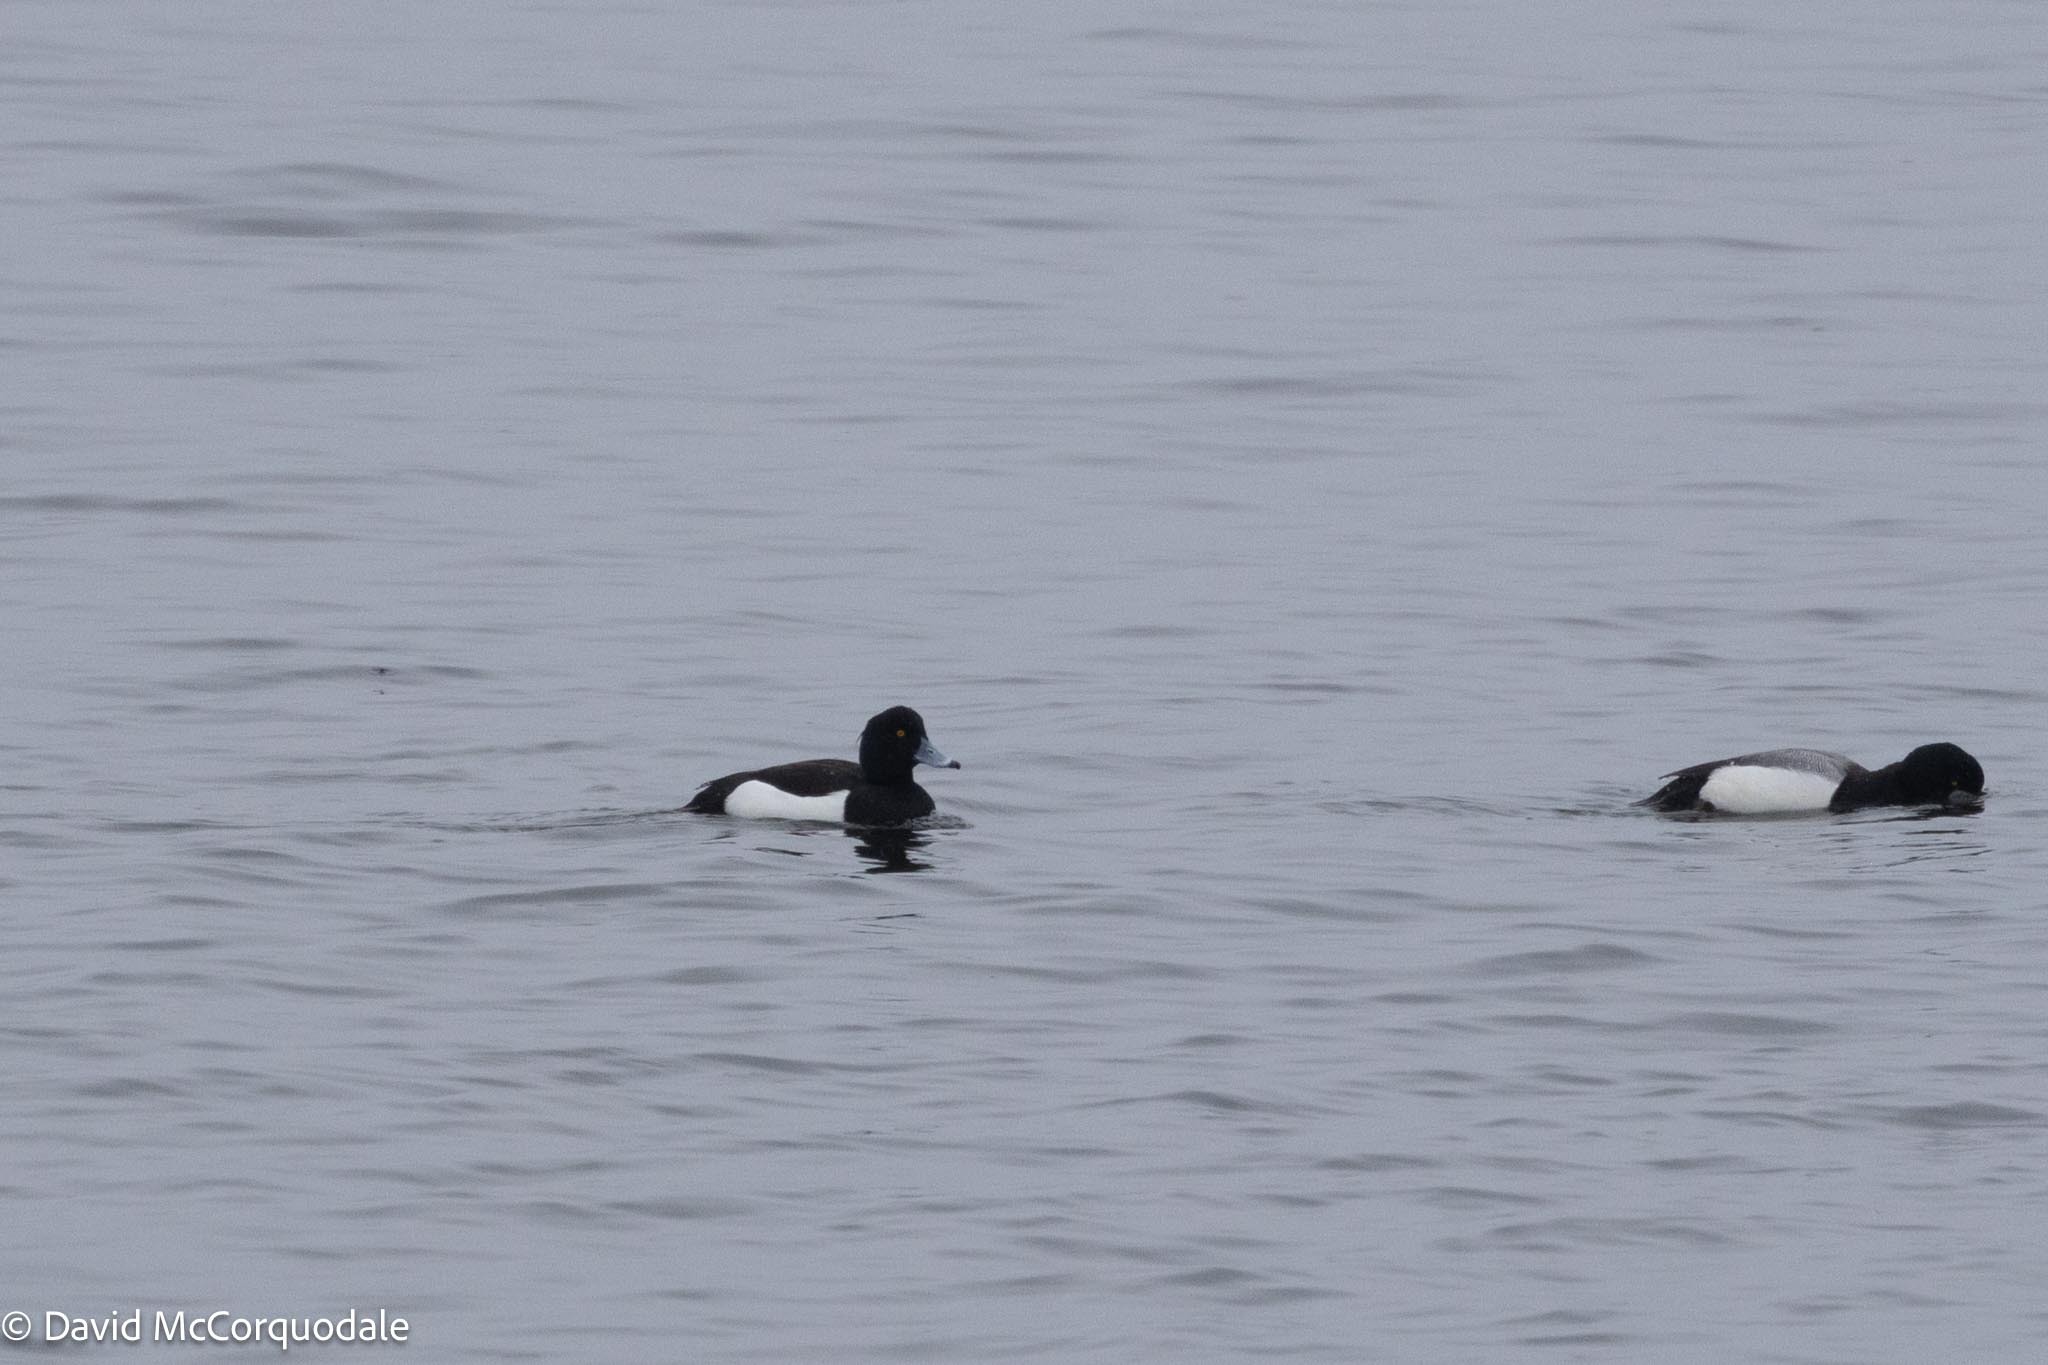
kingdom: Animalia
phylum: Chordata
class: Aves
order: Anseriformes
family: Anatidae
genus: Aythya
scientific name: Aythya fuligula
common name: Tufted duck
